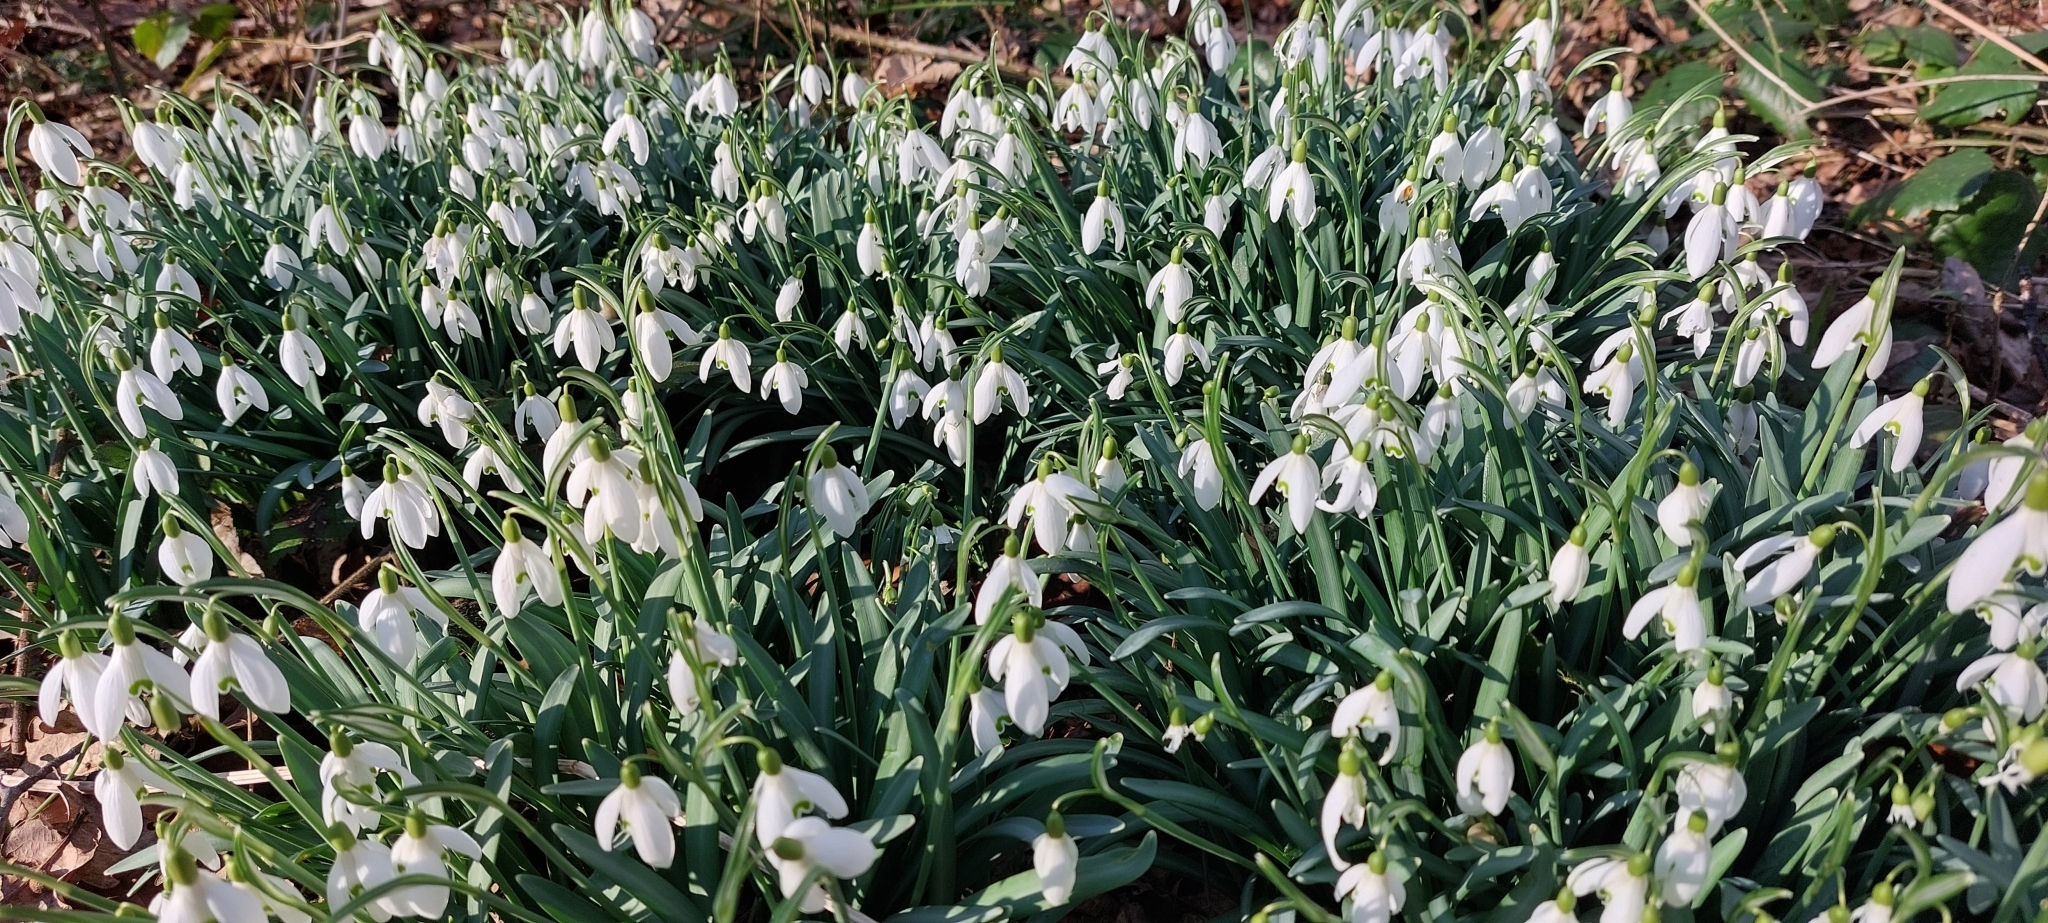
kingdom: Plantae
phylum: Tracheophyta
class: Liliopsida
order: Asparagales
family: Amaryllidaceae
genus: Galanthus
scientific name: Galanthus nivalis
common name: Snowdrop
